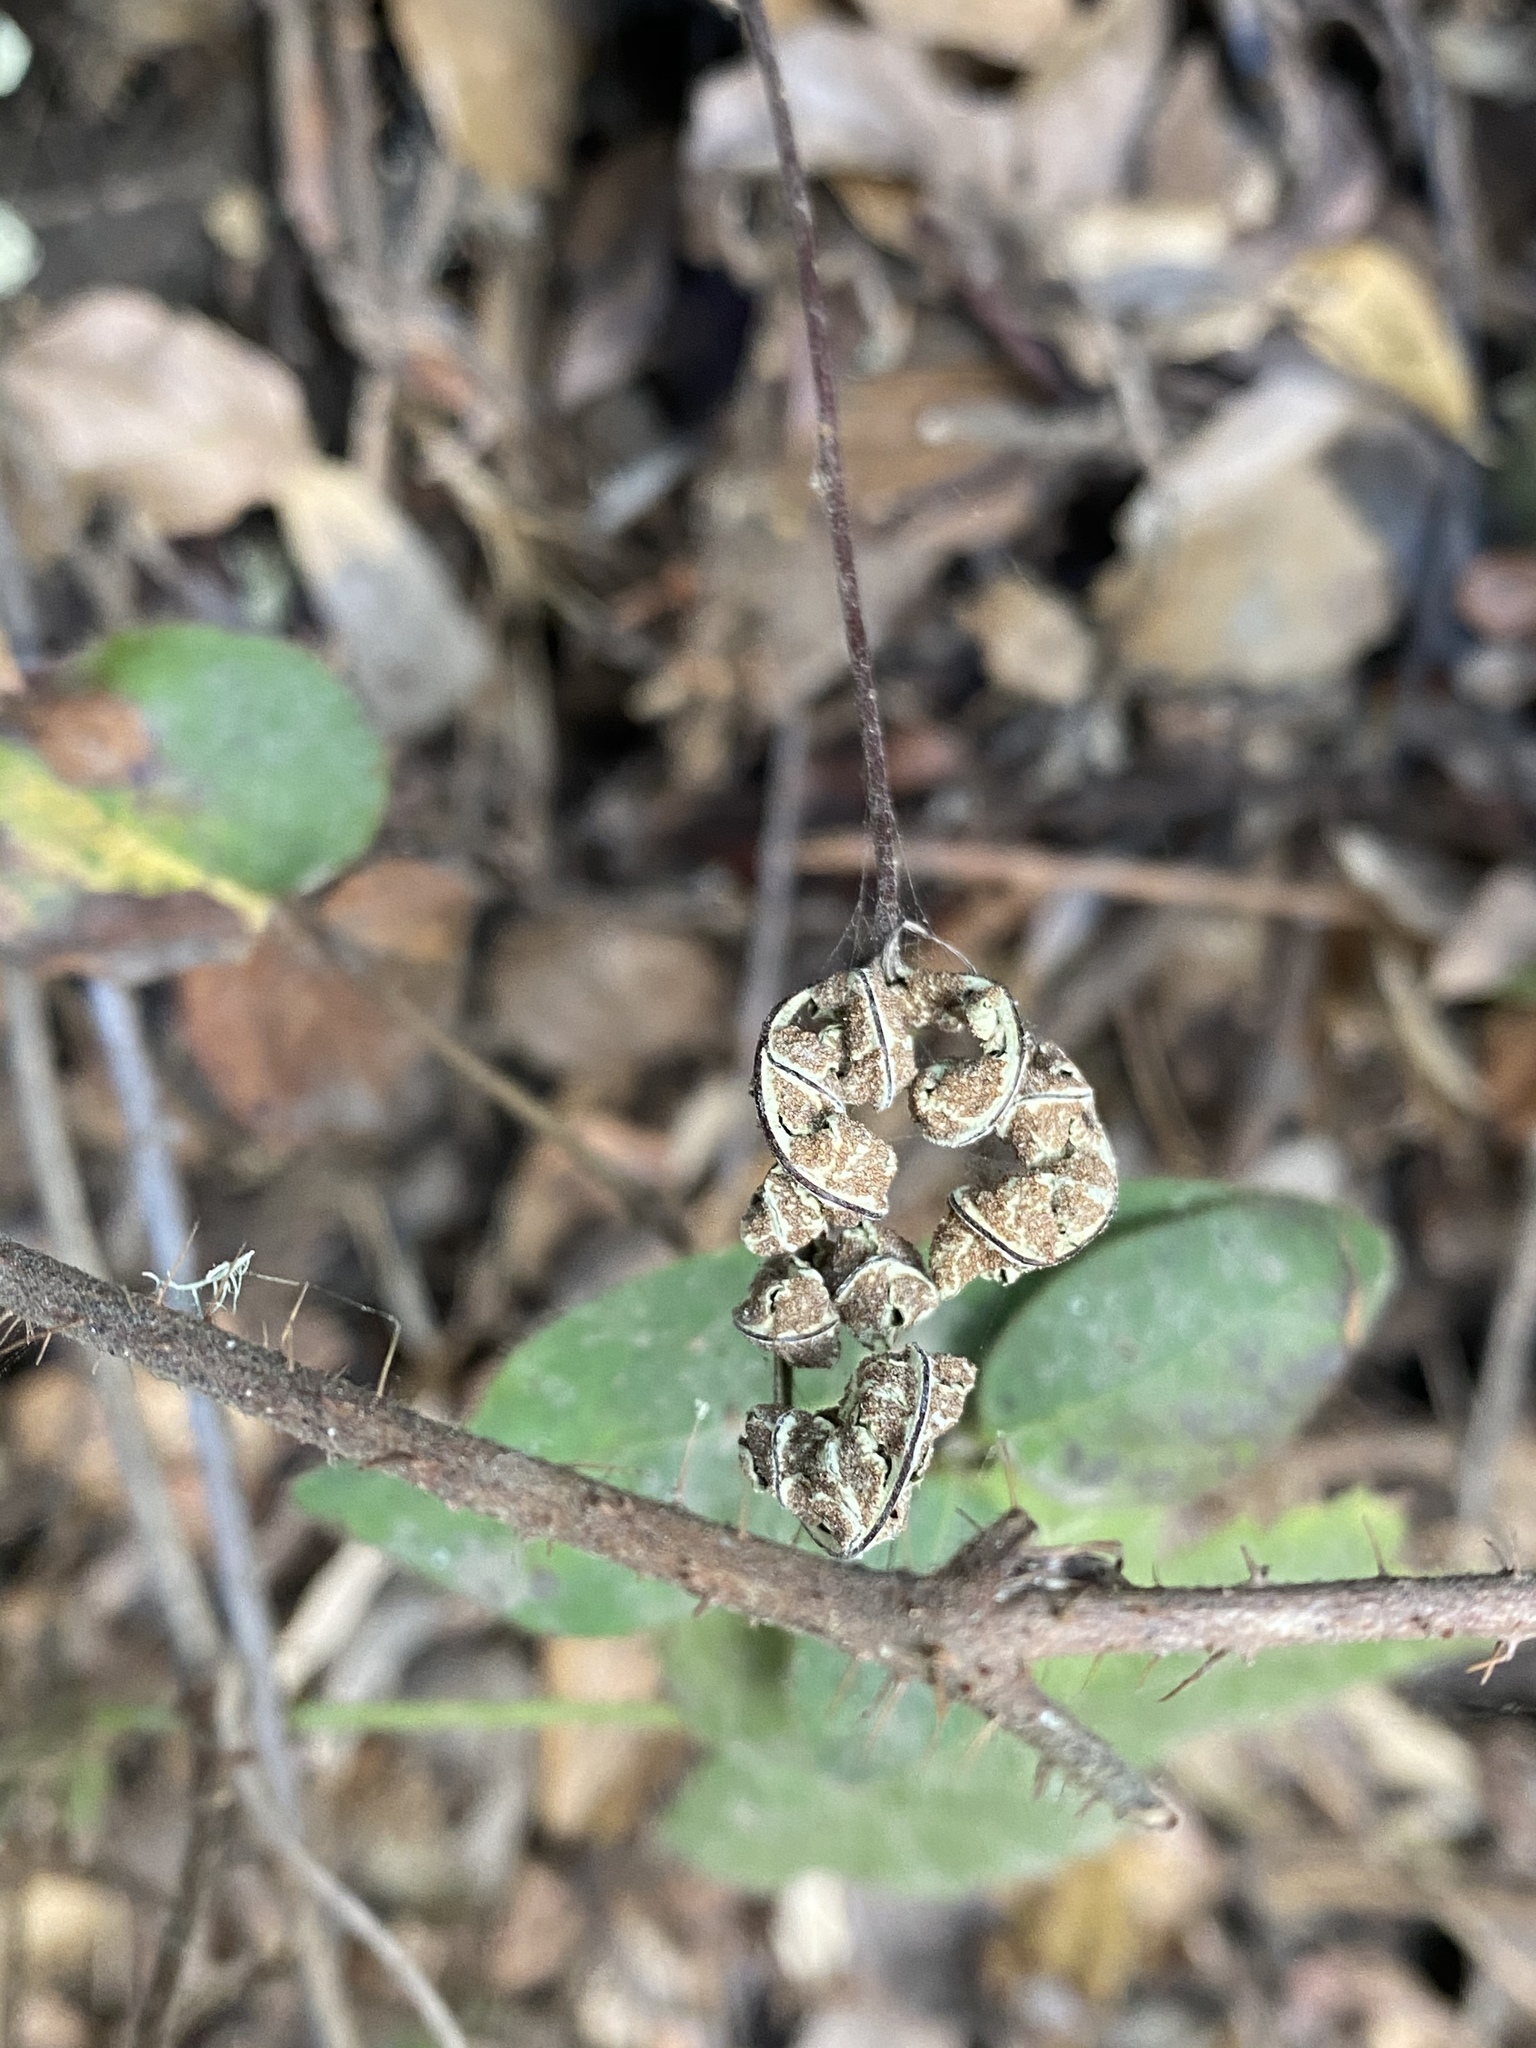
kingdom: Plantae
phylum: Tracheophyta
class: Polypodiopsida
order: Polypodiales
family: Pteridaceae
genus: Pentagramma
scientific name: Pentagramma triangularis
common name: Gold fern
